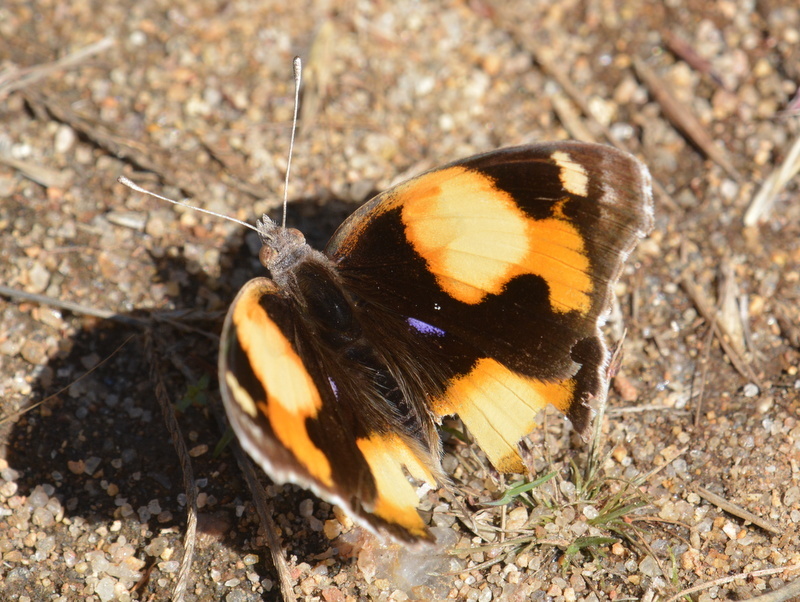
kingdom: Animalia
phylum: Arthropoda
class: Insecta
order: Lepidoptera
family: Nymphalidae
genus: Junonia
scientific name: Junonia hierta
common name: Yellow pansy
